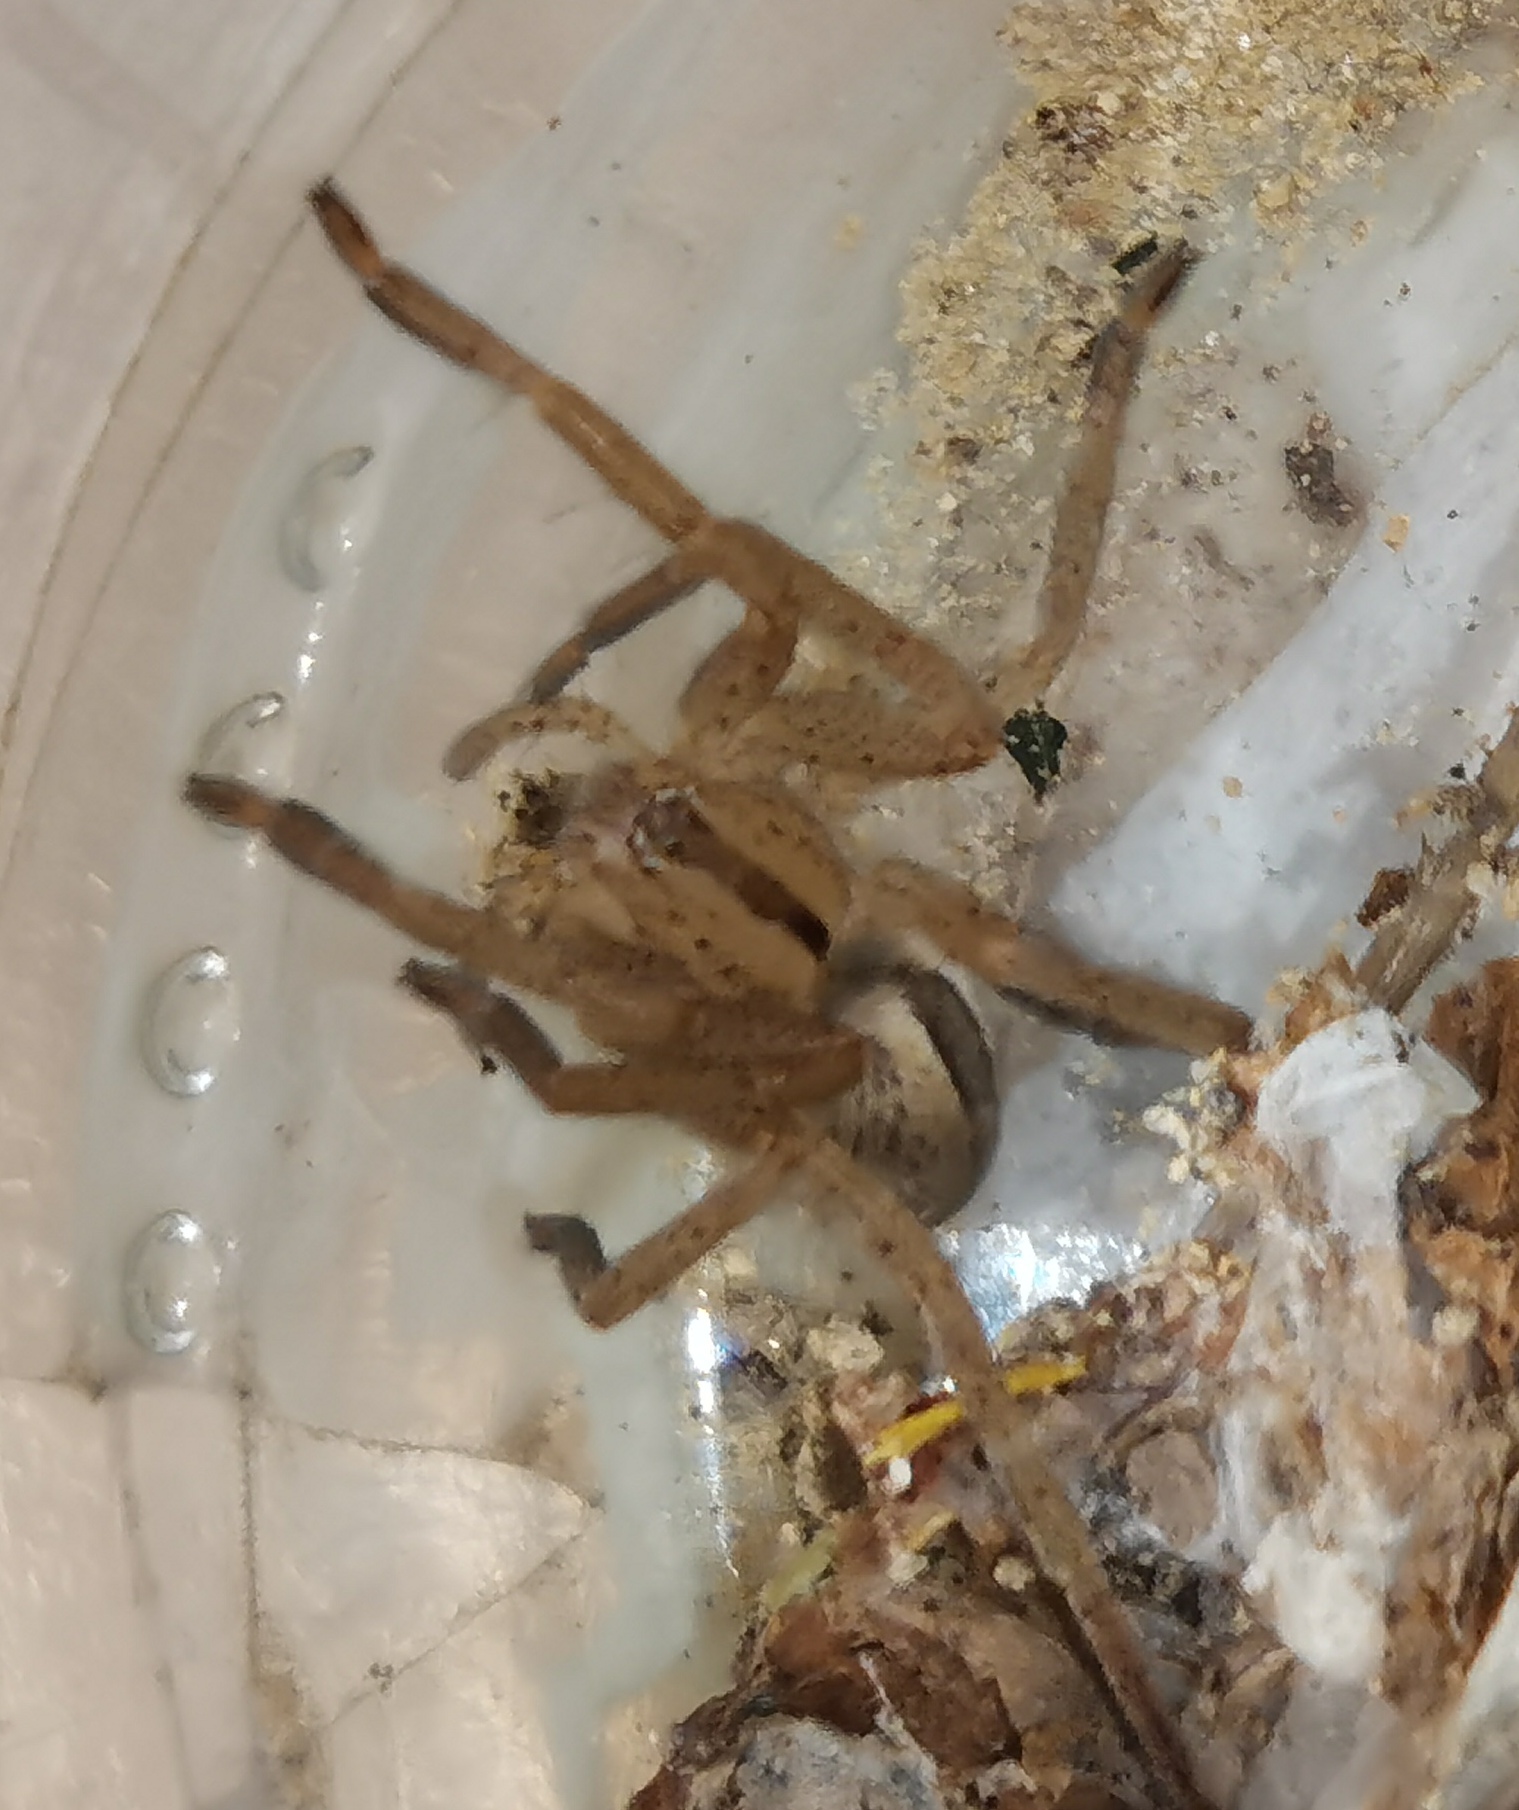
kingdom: Animalia
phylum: Arthropoda
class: Arachnida
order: Araneae
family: Sparassidae
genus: Micrommata
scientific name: Micrommata ligurina
